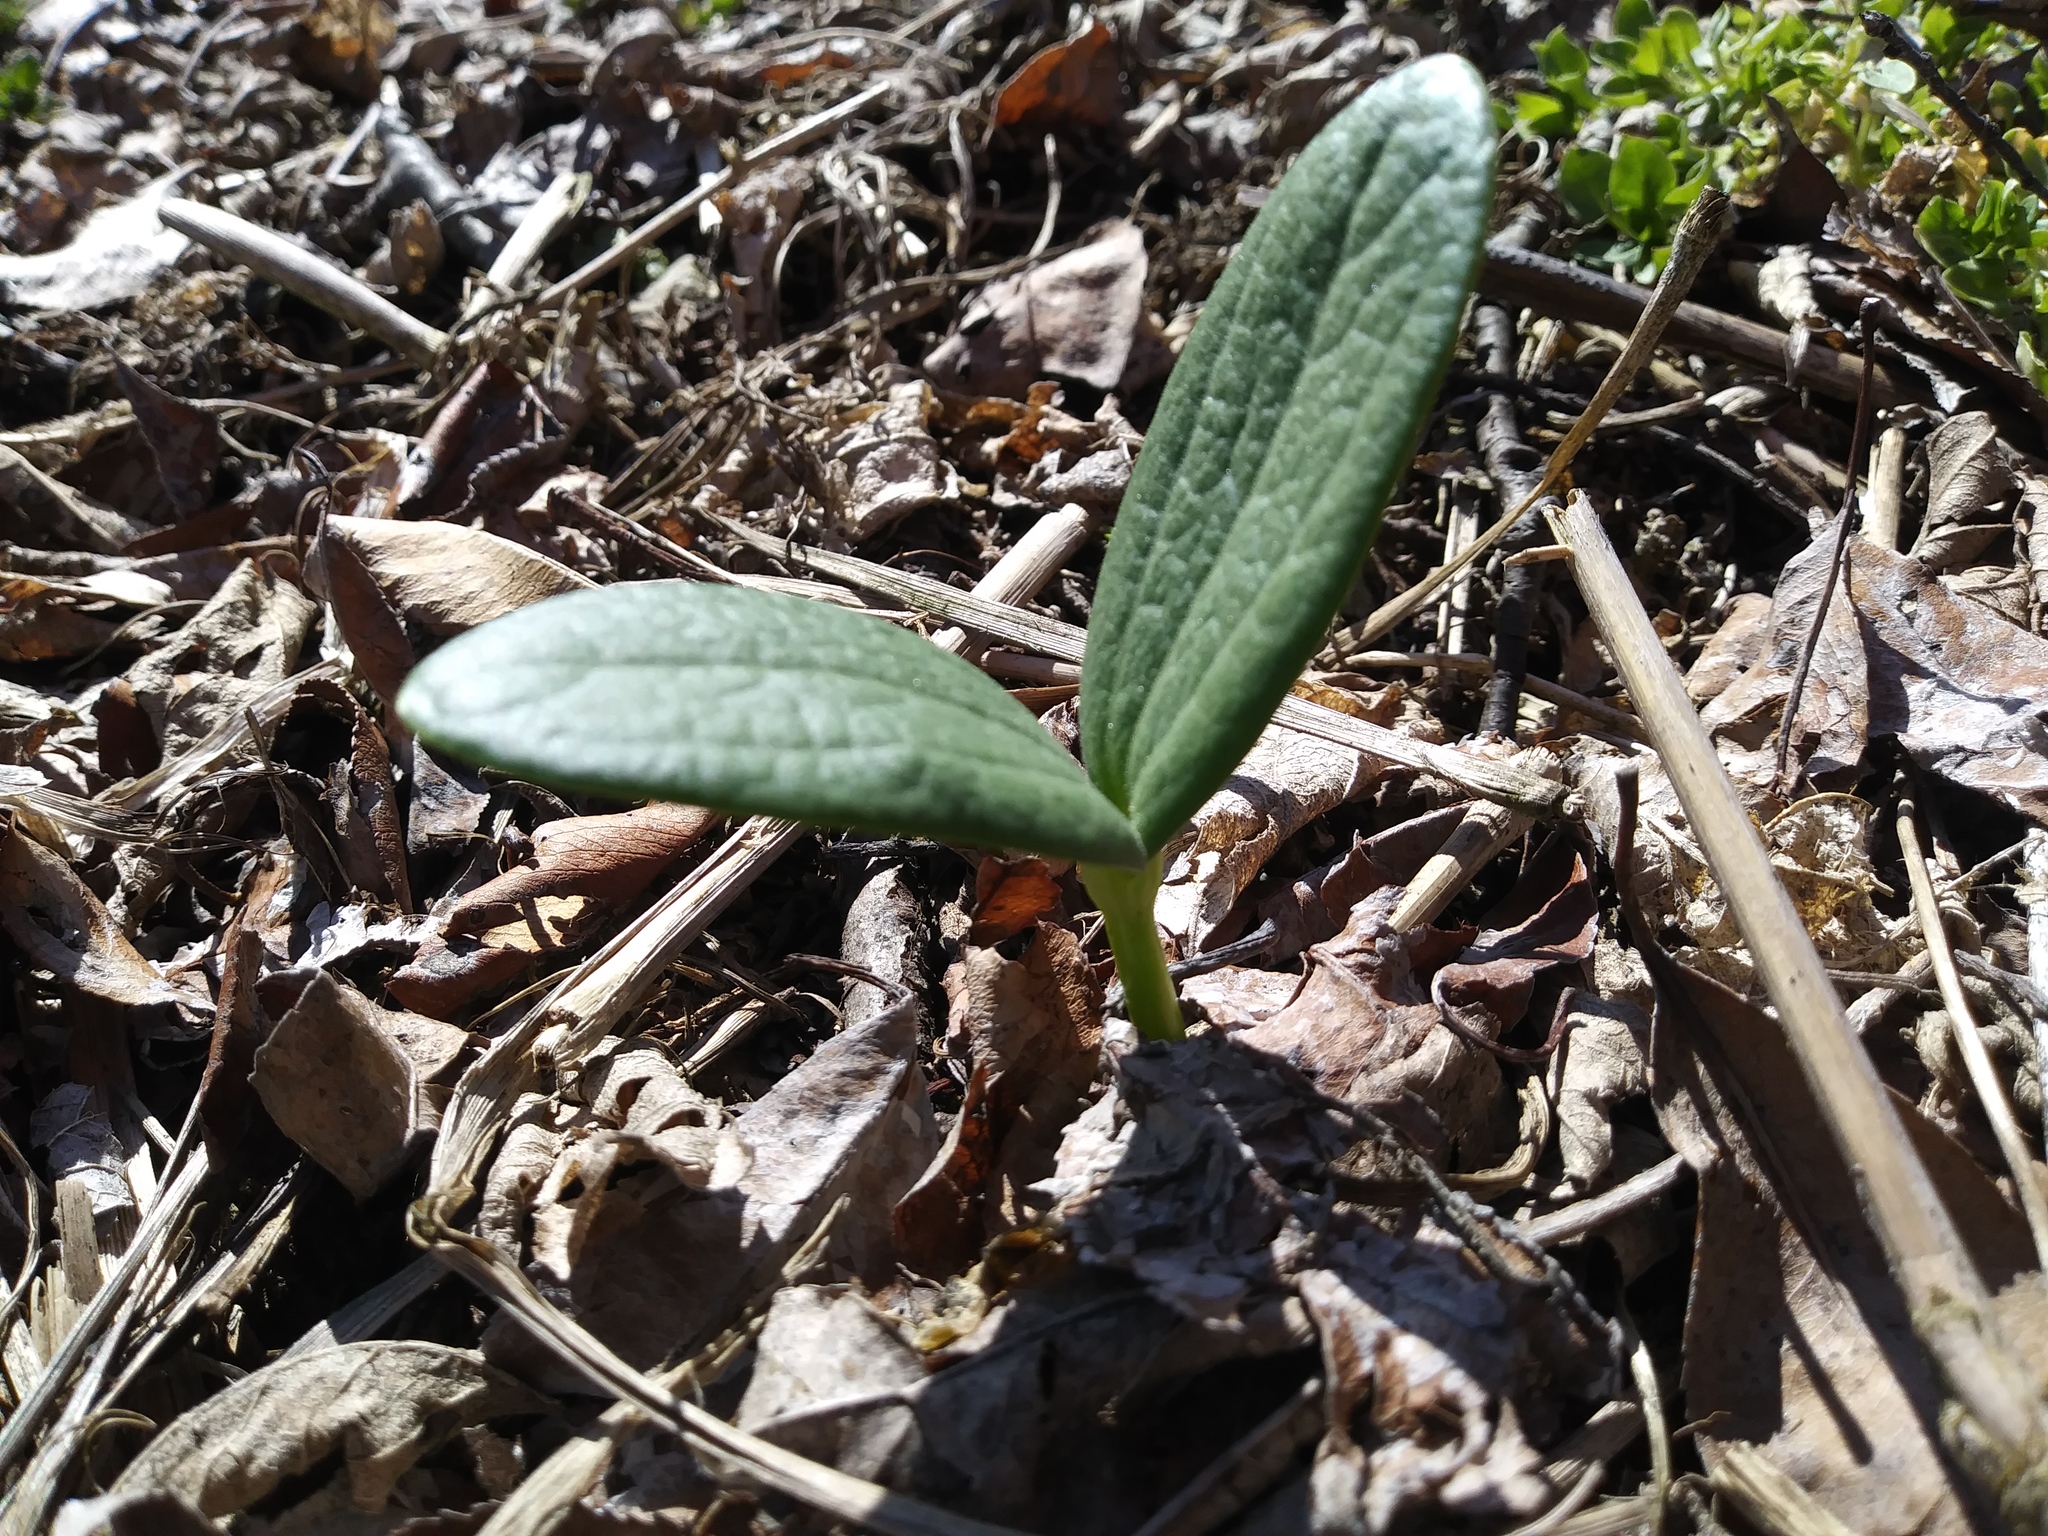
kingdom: Plantae
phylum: Tracheophyta
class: Magnoliopsida
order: Cucurbitales
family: Cucurbitaceae
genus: Echinocystis
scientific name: Echinocystis lobata
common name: Wild cucumber
